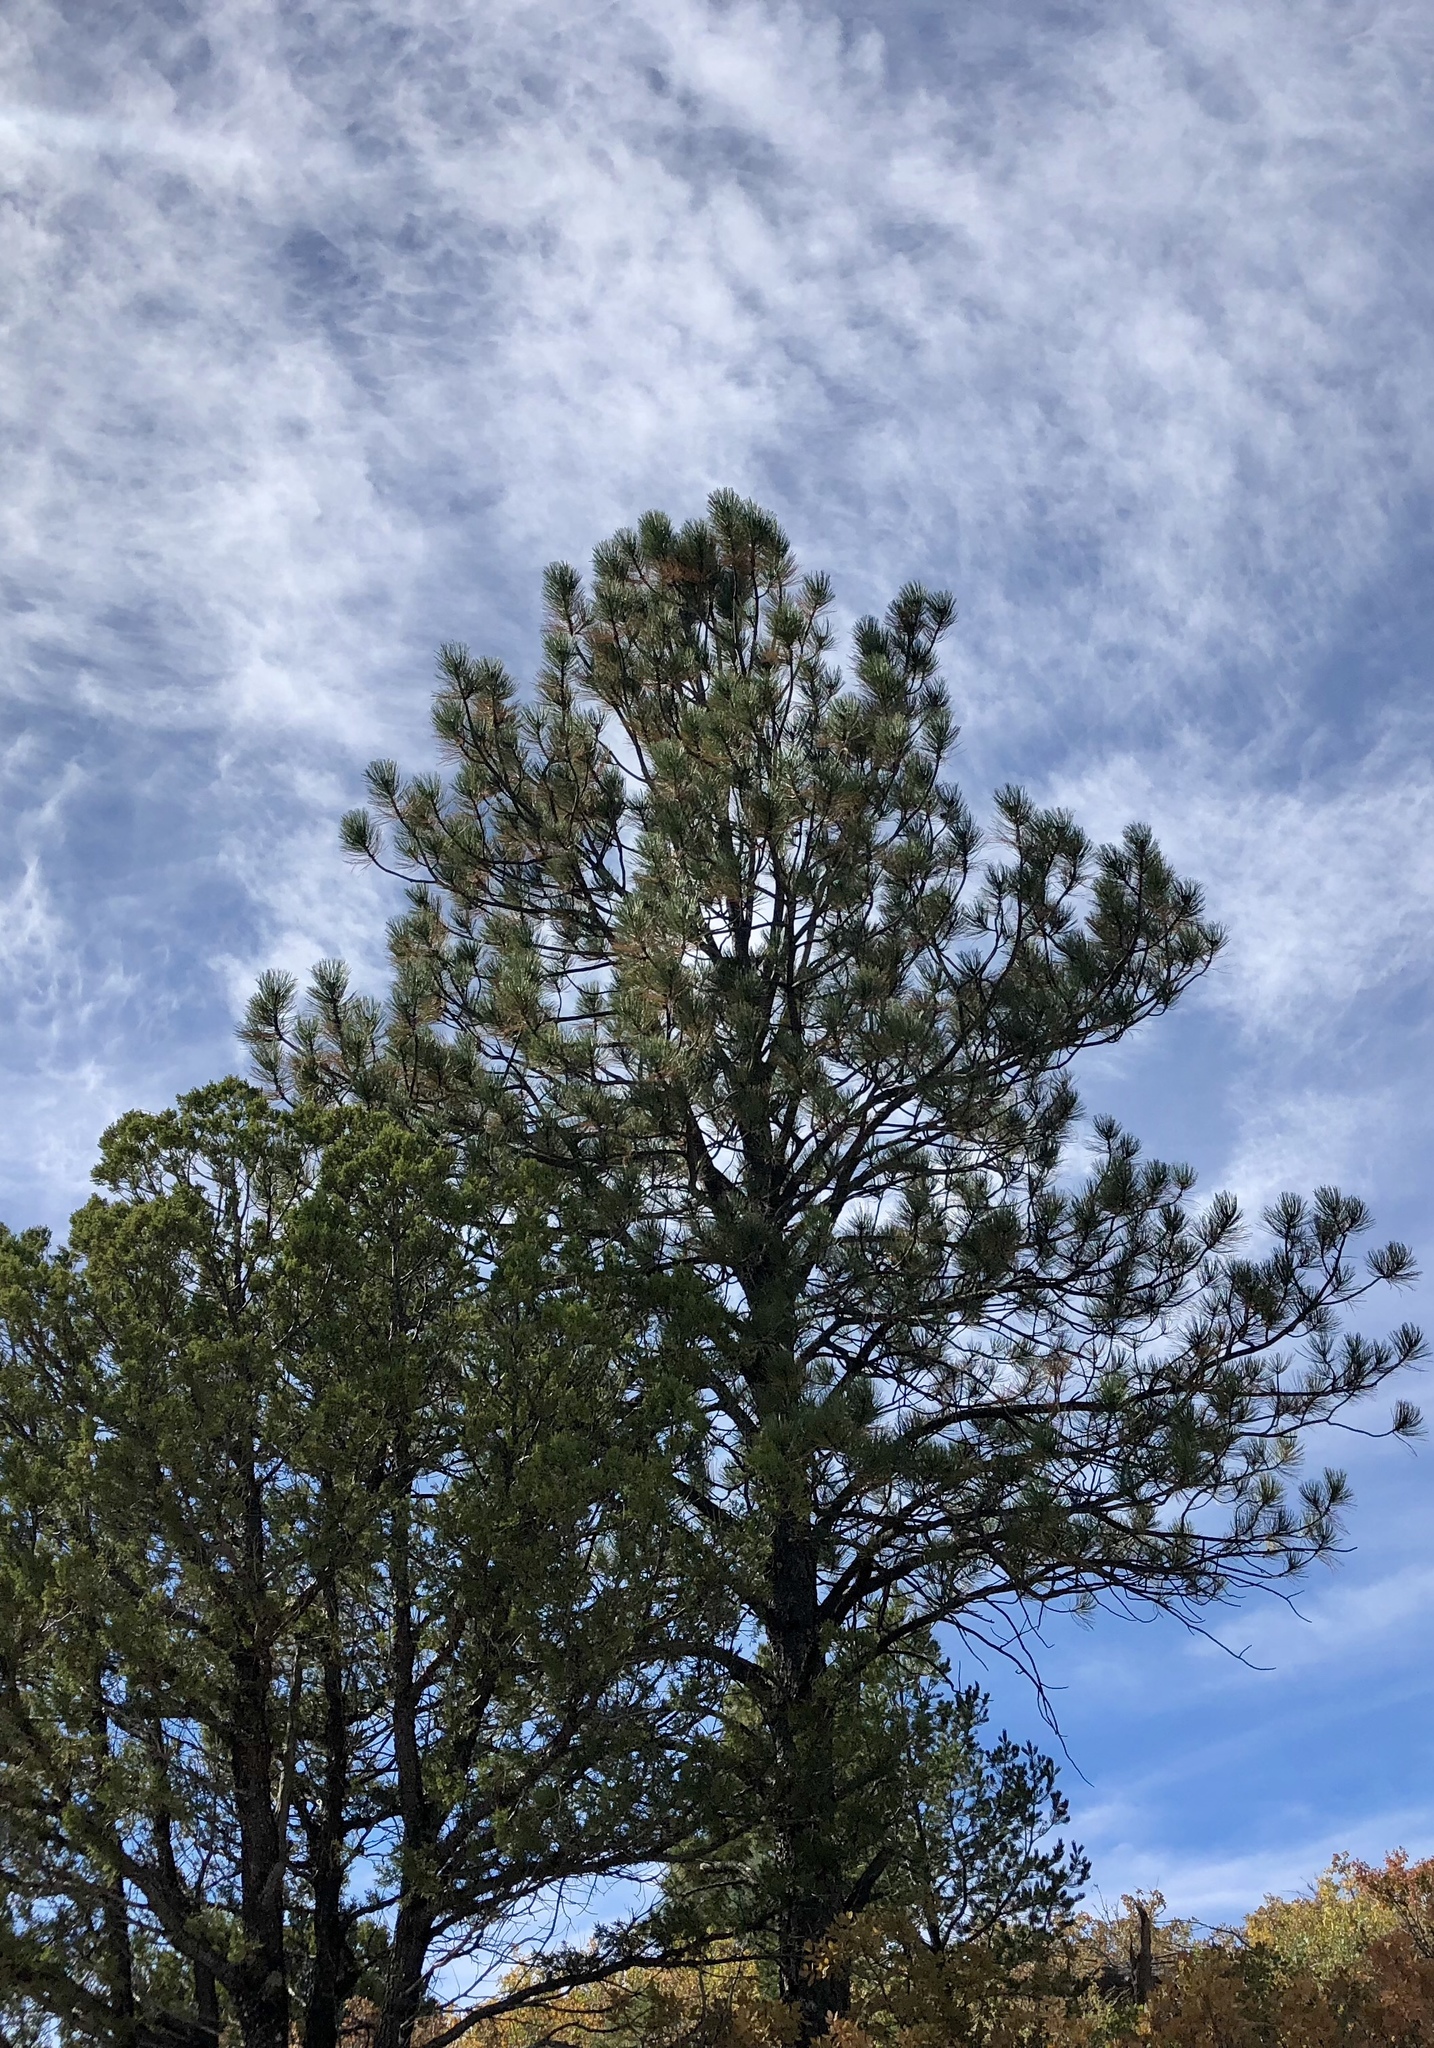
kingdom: Plantae
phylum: Tracheophyta
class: Pinopsida
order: Pinales
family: Pinaceae
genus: Pinus
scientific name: Pinus edulis
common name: Colorado pinyon
